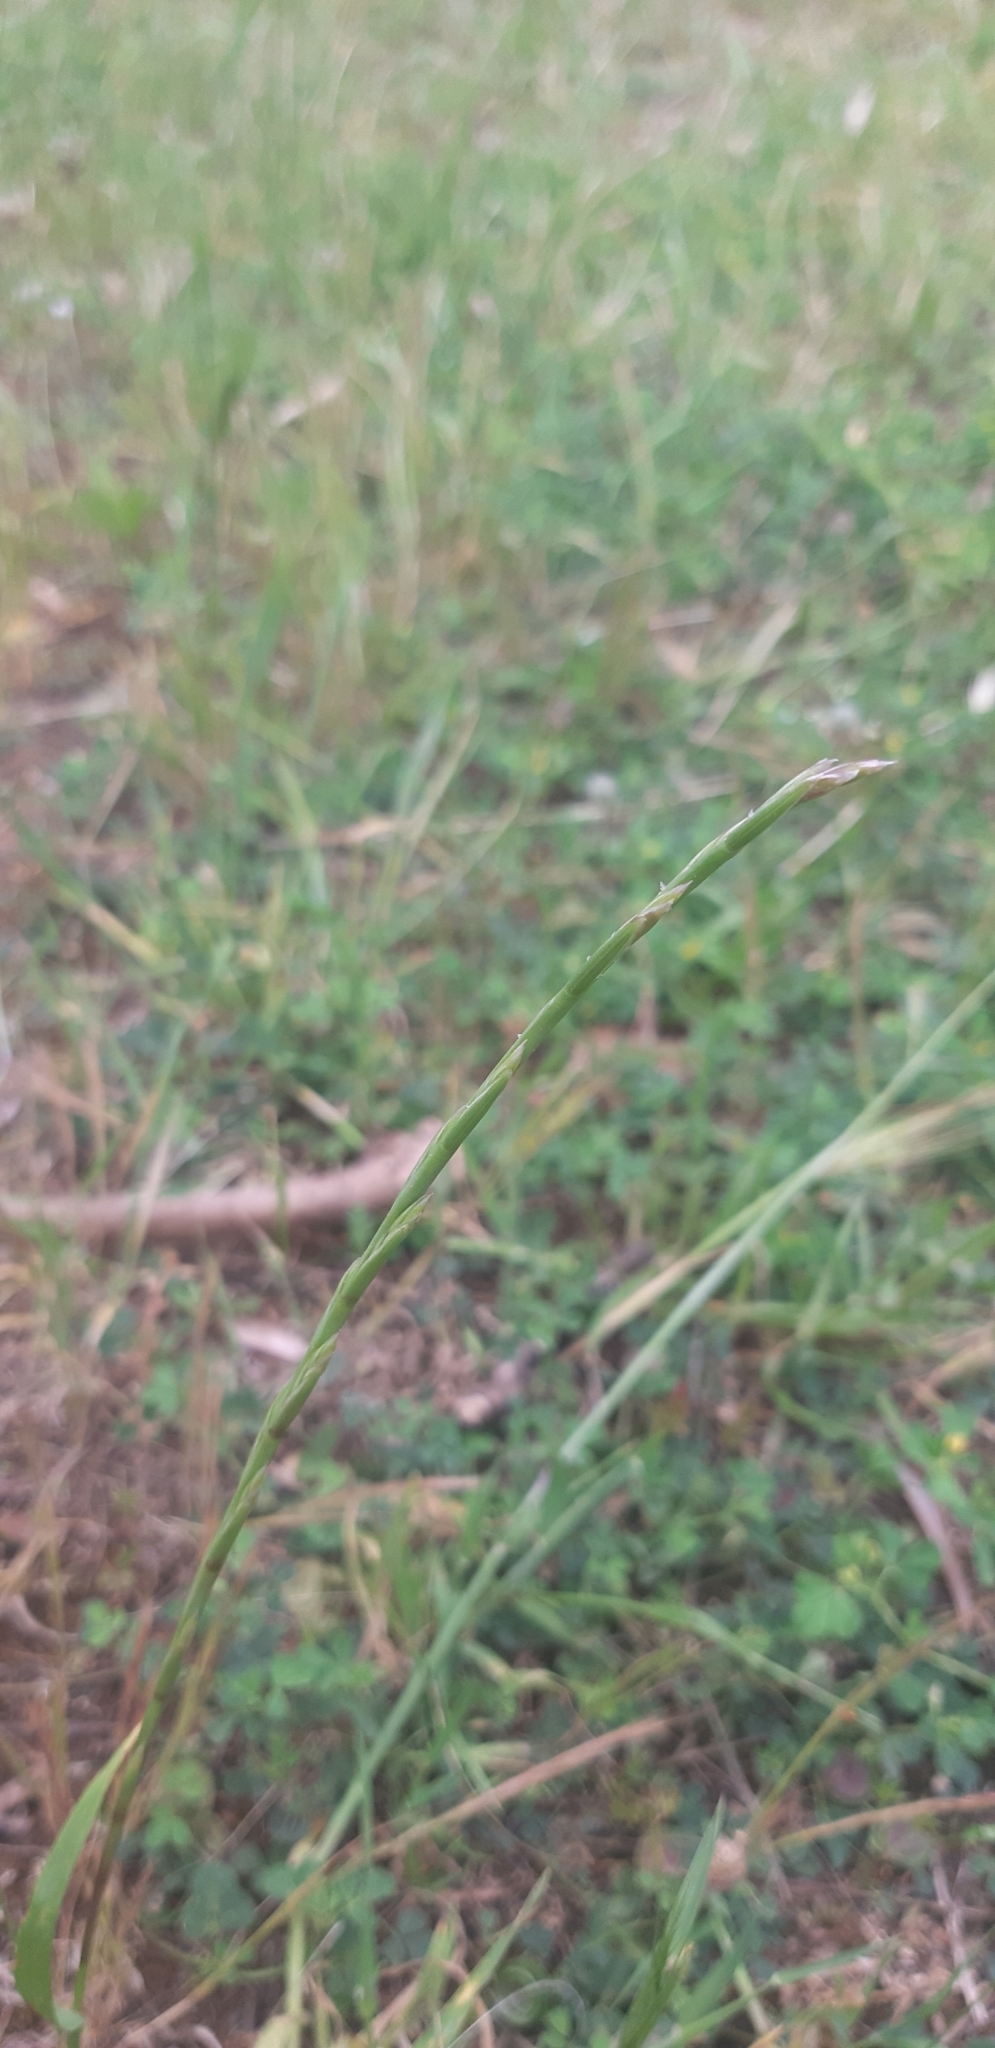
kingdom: Plantae
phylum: Tracheophyta
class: Liliopsida
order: Poales
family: Poaceae
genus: Lolium
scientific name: Lolium rigidum
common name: Wimmera ryegrass
